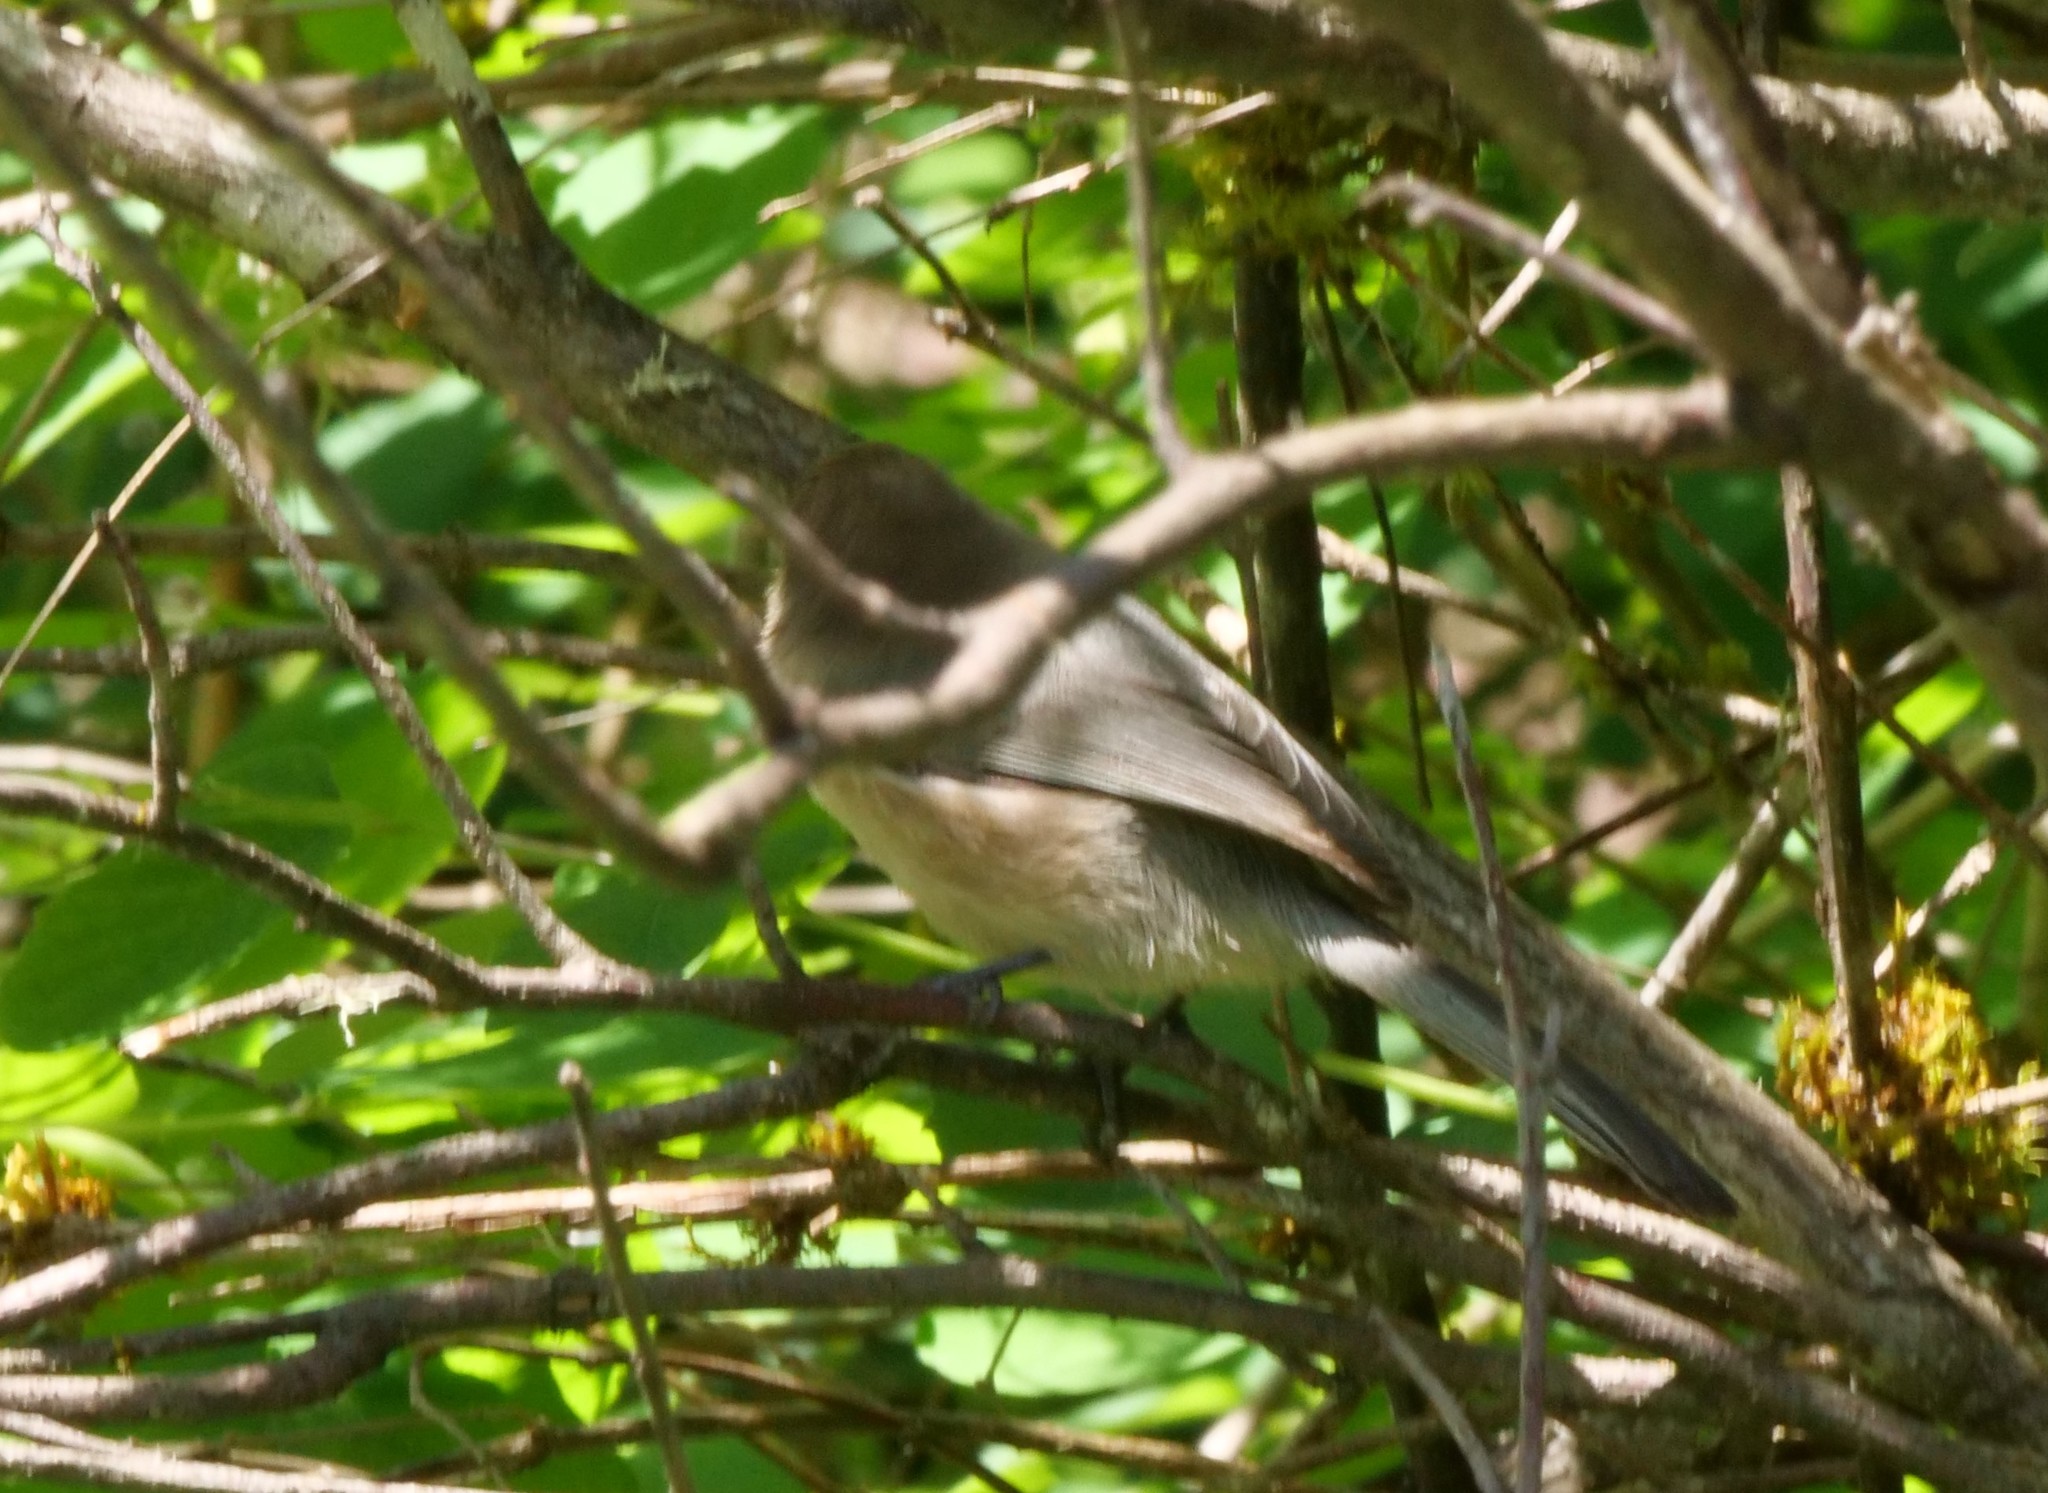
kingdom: Animalia
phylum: Chordata
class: Aves
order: Passeriformes
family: Aegithalidae
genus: Psaltriparus
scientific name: Psaltriparus minimus
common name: American bushtit
